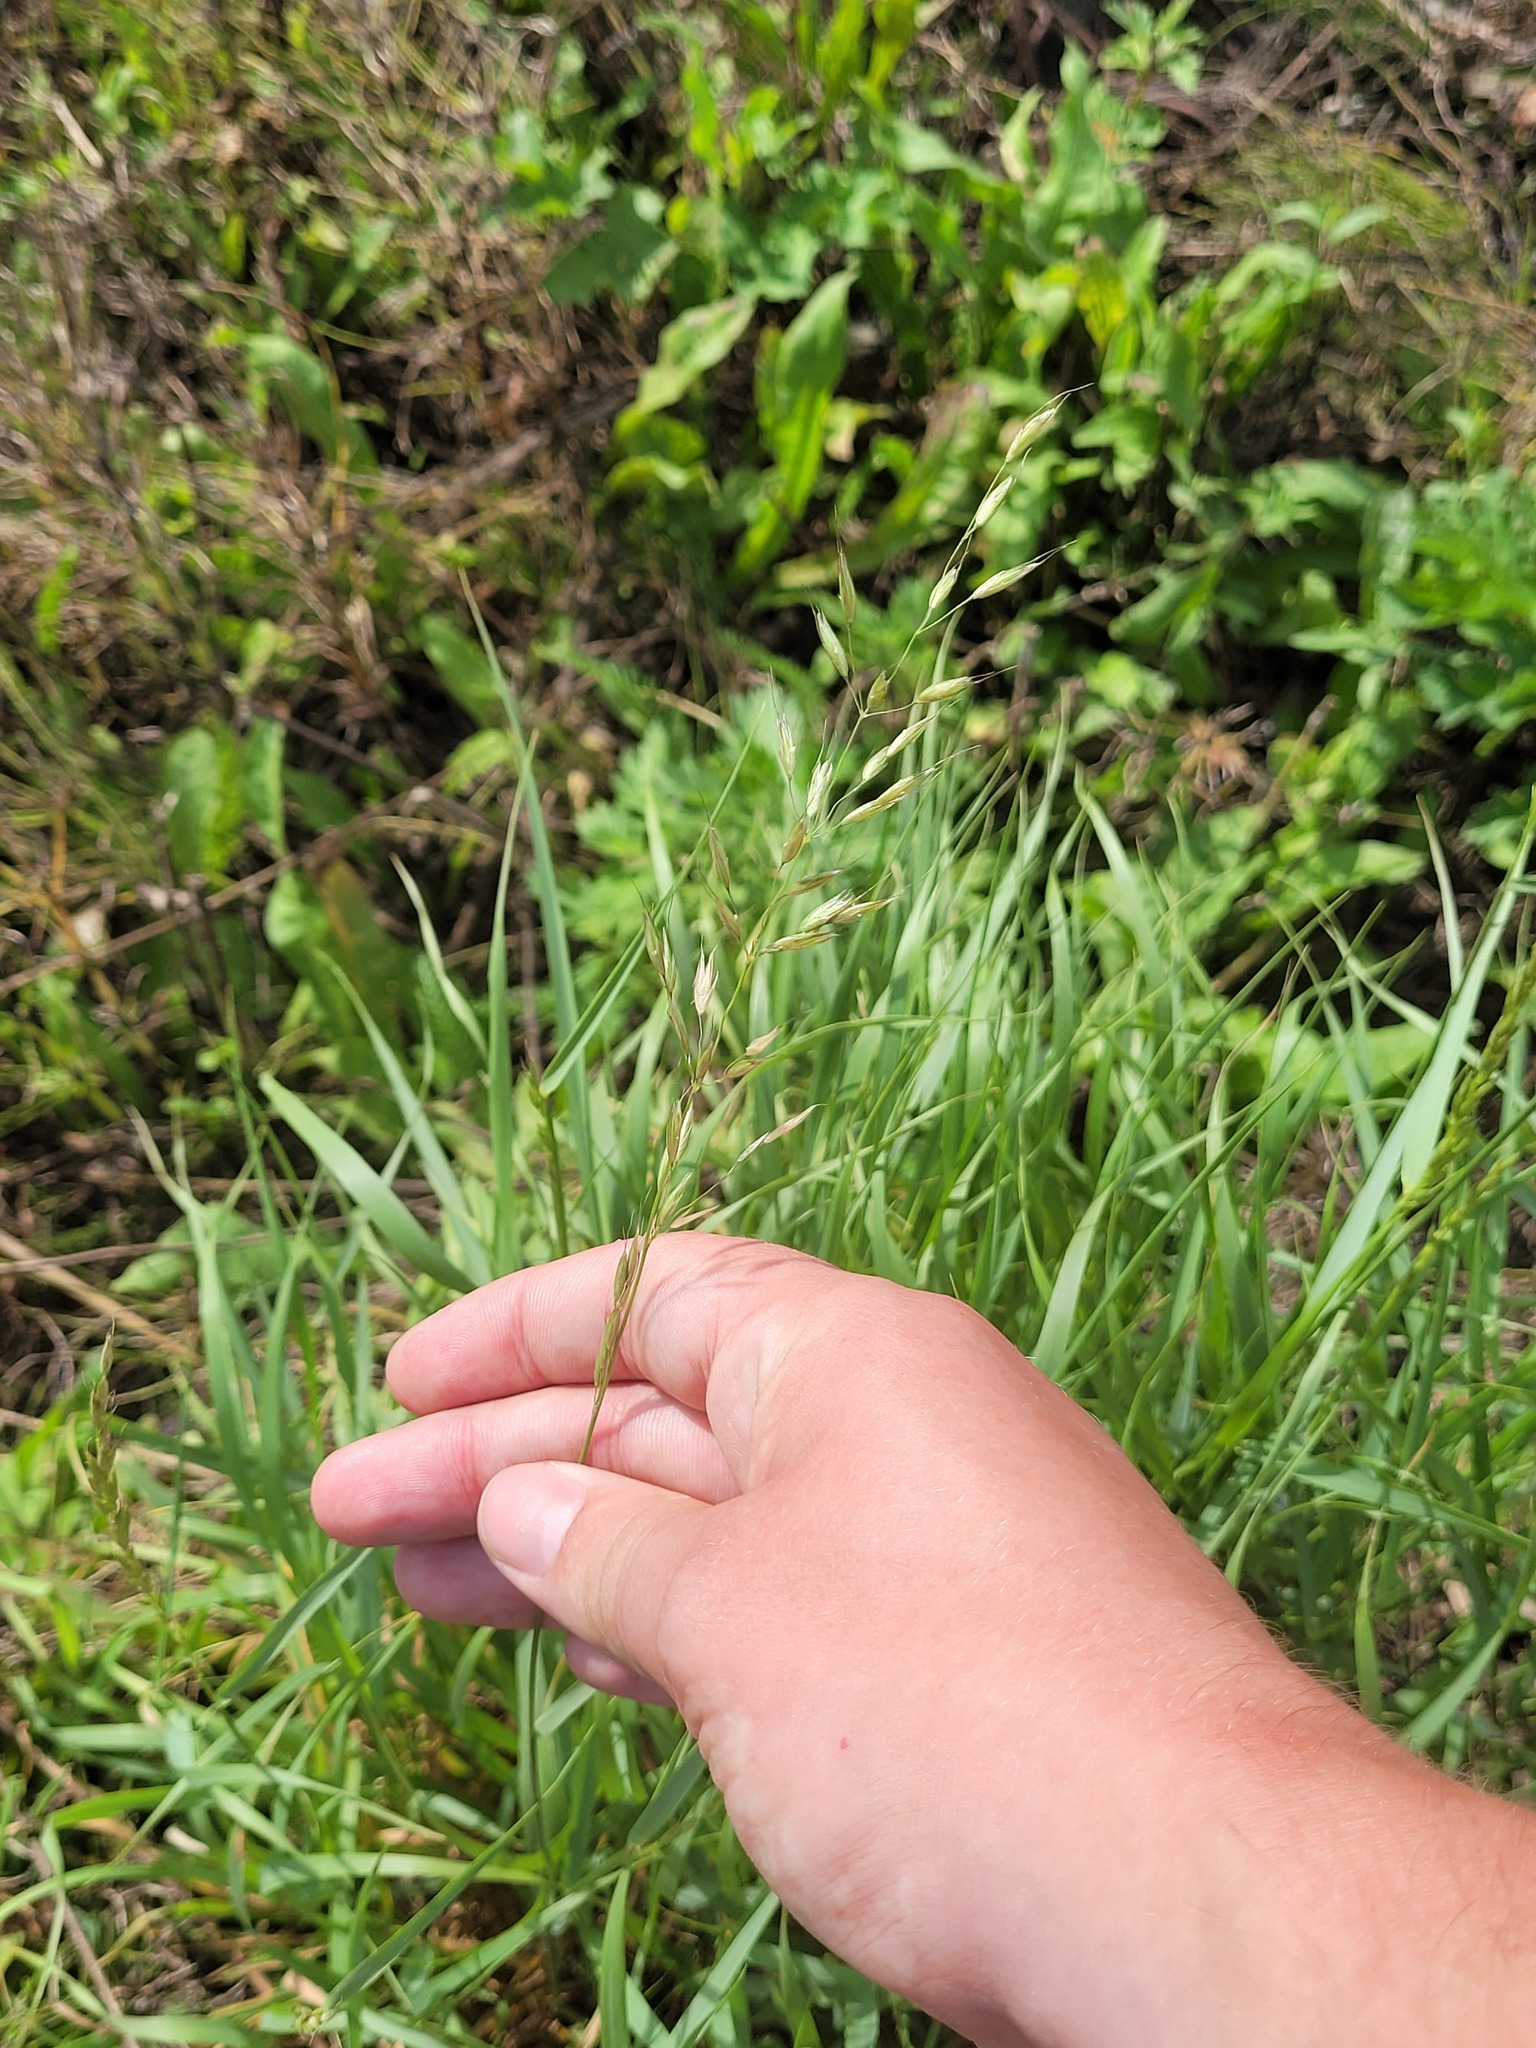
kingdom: Plantae
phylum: Tracheophyta
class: Liliopsida
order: Poales
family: Poaceae
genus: Arrhenatherum
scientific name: Arrhenatherum elatius
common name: Tall oatgrass
